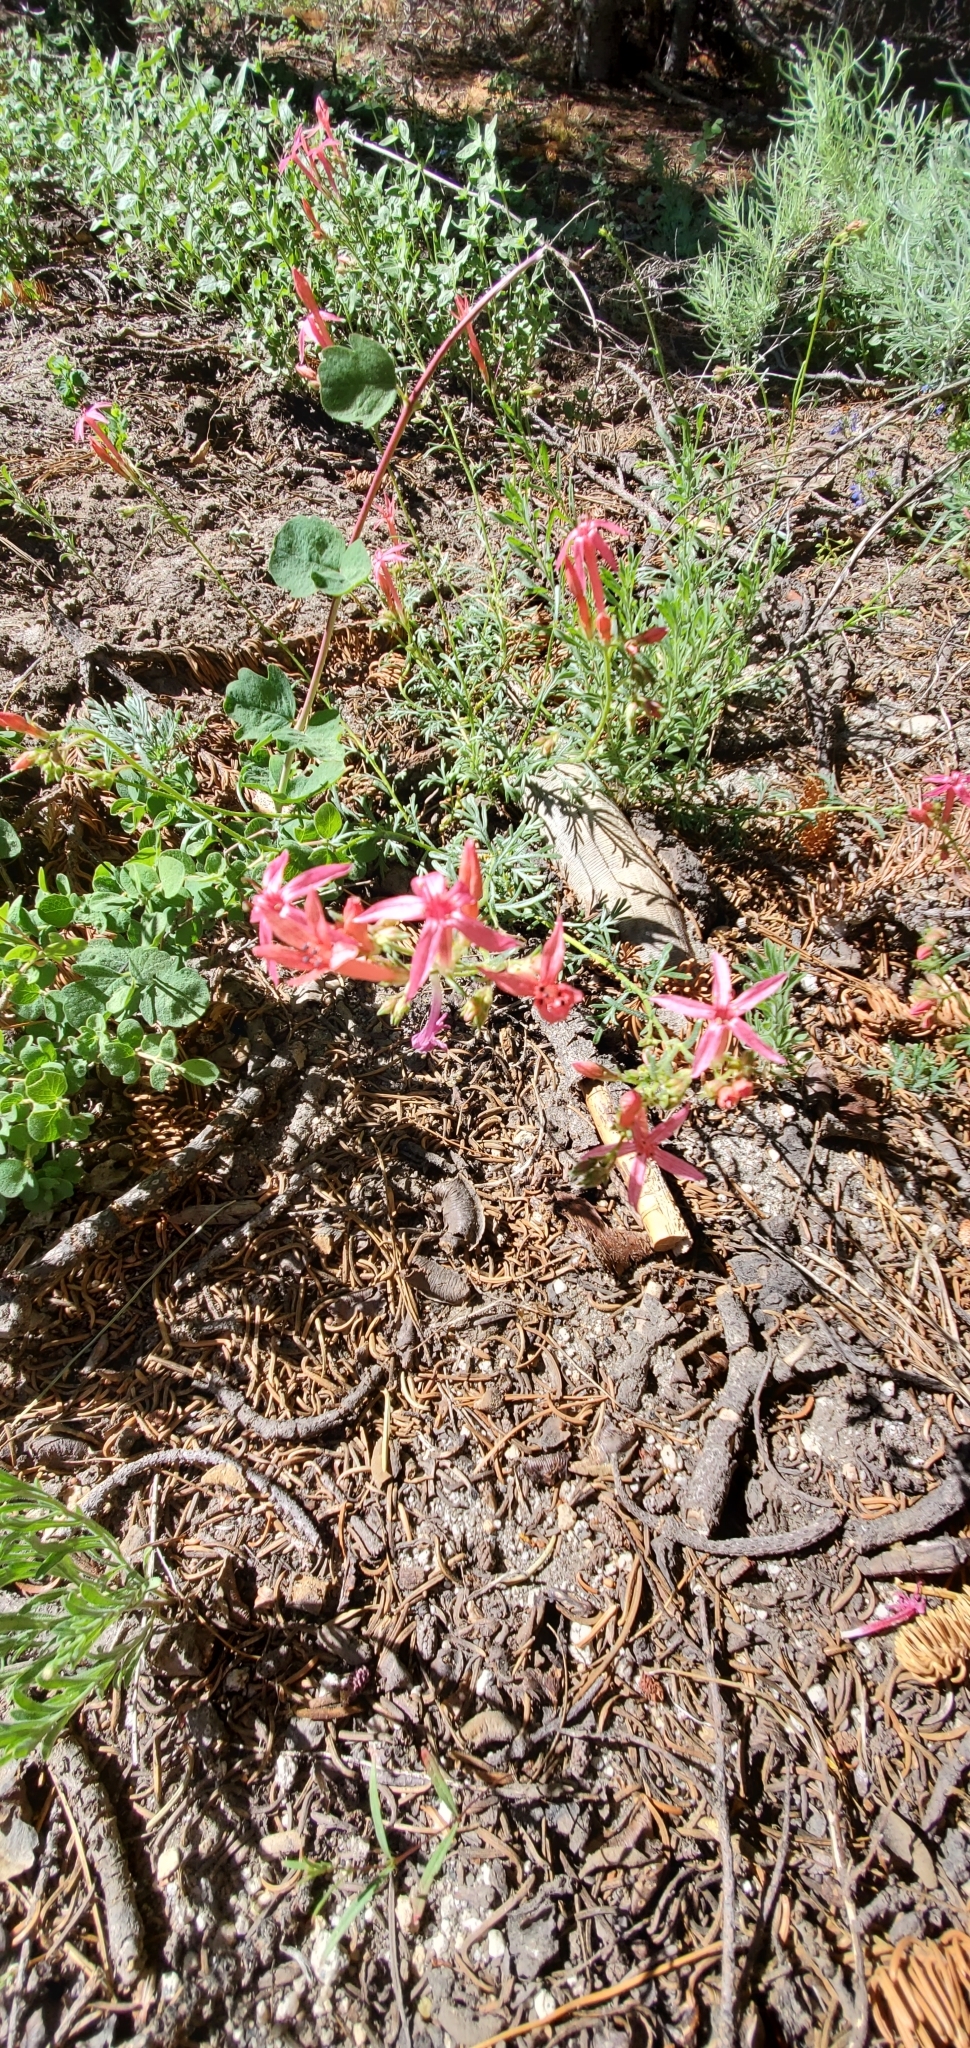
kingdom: Plantae
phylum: Tracheophyta
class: Magnoliopsida
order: Ericales
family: Polemoniaceae
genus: Ipomopsis
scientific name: Ipomopsis aggregata
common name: Scarlet gilia
